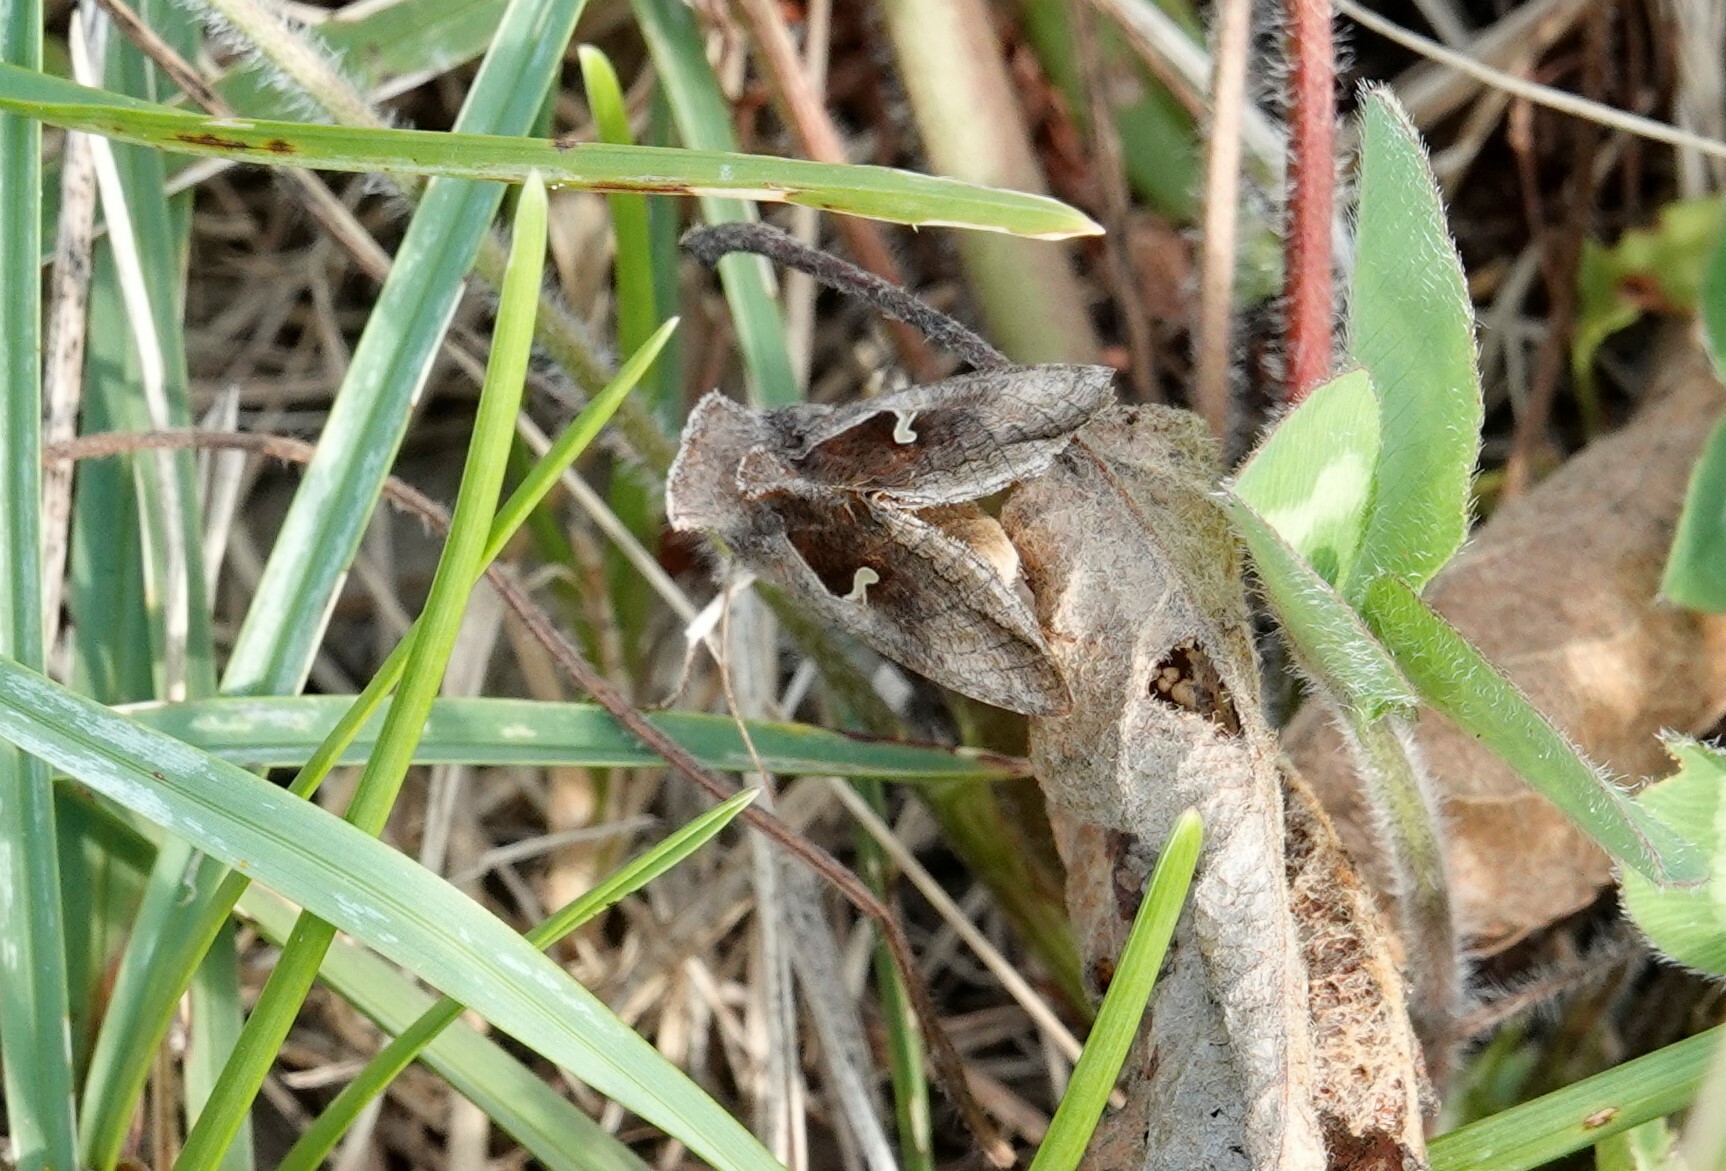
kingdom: Animalia
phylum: Arthropoda
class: Insecta
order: Lepidoptera
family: Noctuidae
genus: Anagrapha
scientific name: Anagrapha falcifera
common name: Celery looper
